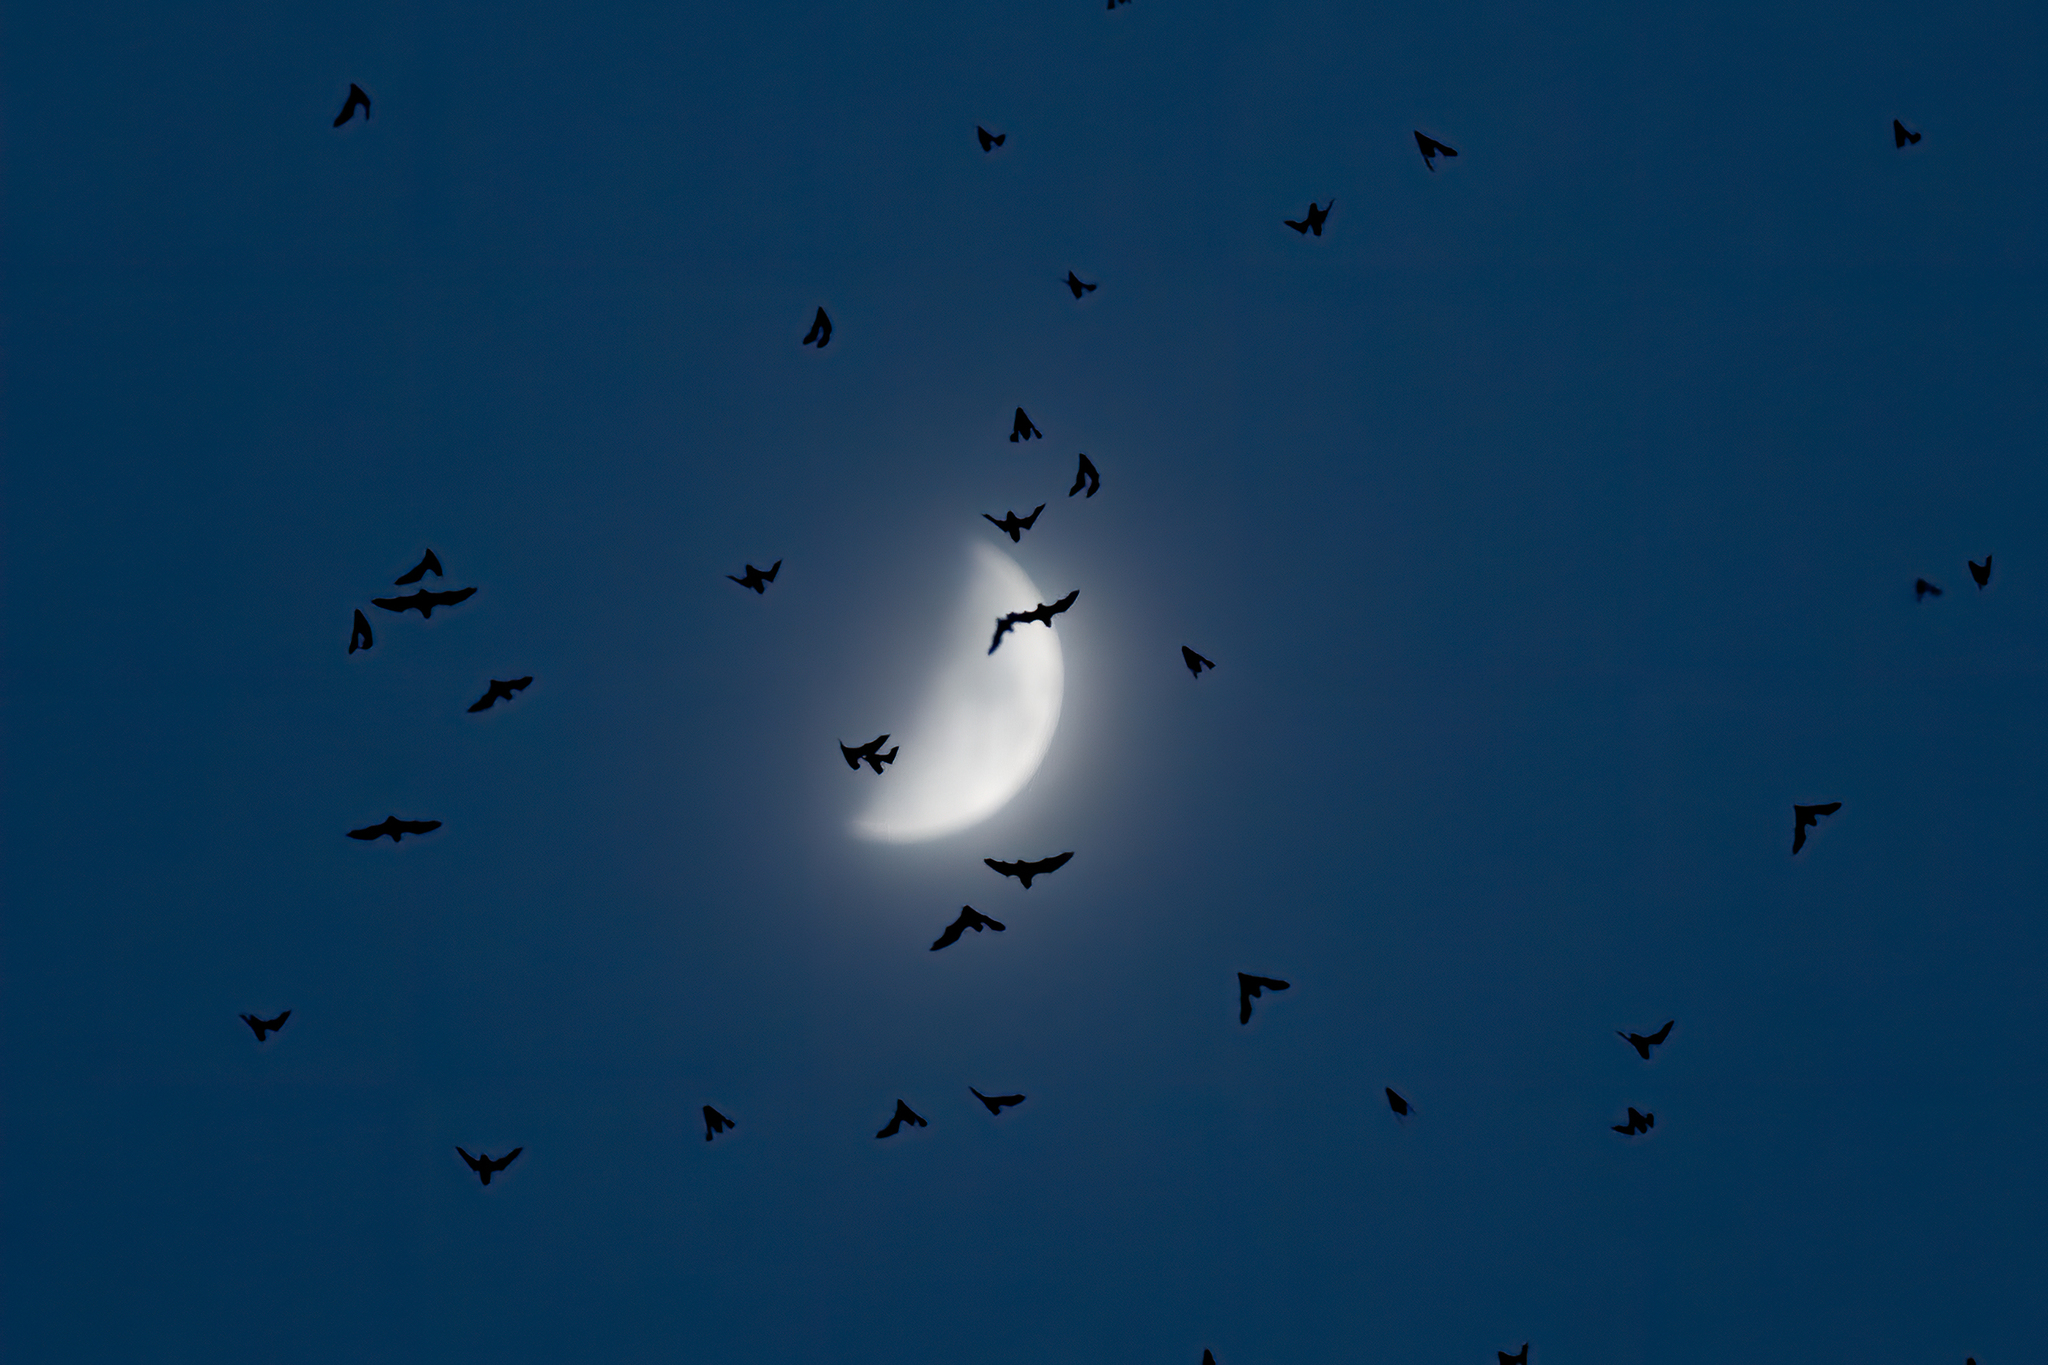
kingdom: Animalia
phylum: Chordata
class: Mammalia
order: Chiroptera
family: Molossidae
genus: Tadarida
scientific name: Tadarida brasiliensis
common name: Mexican free-tailed bat
